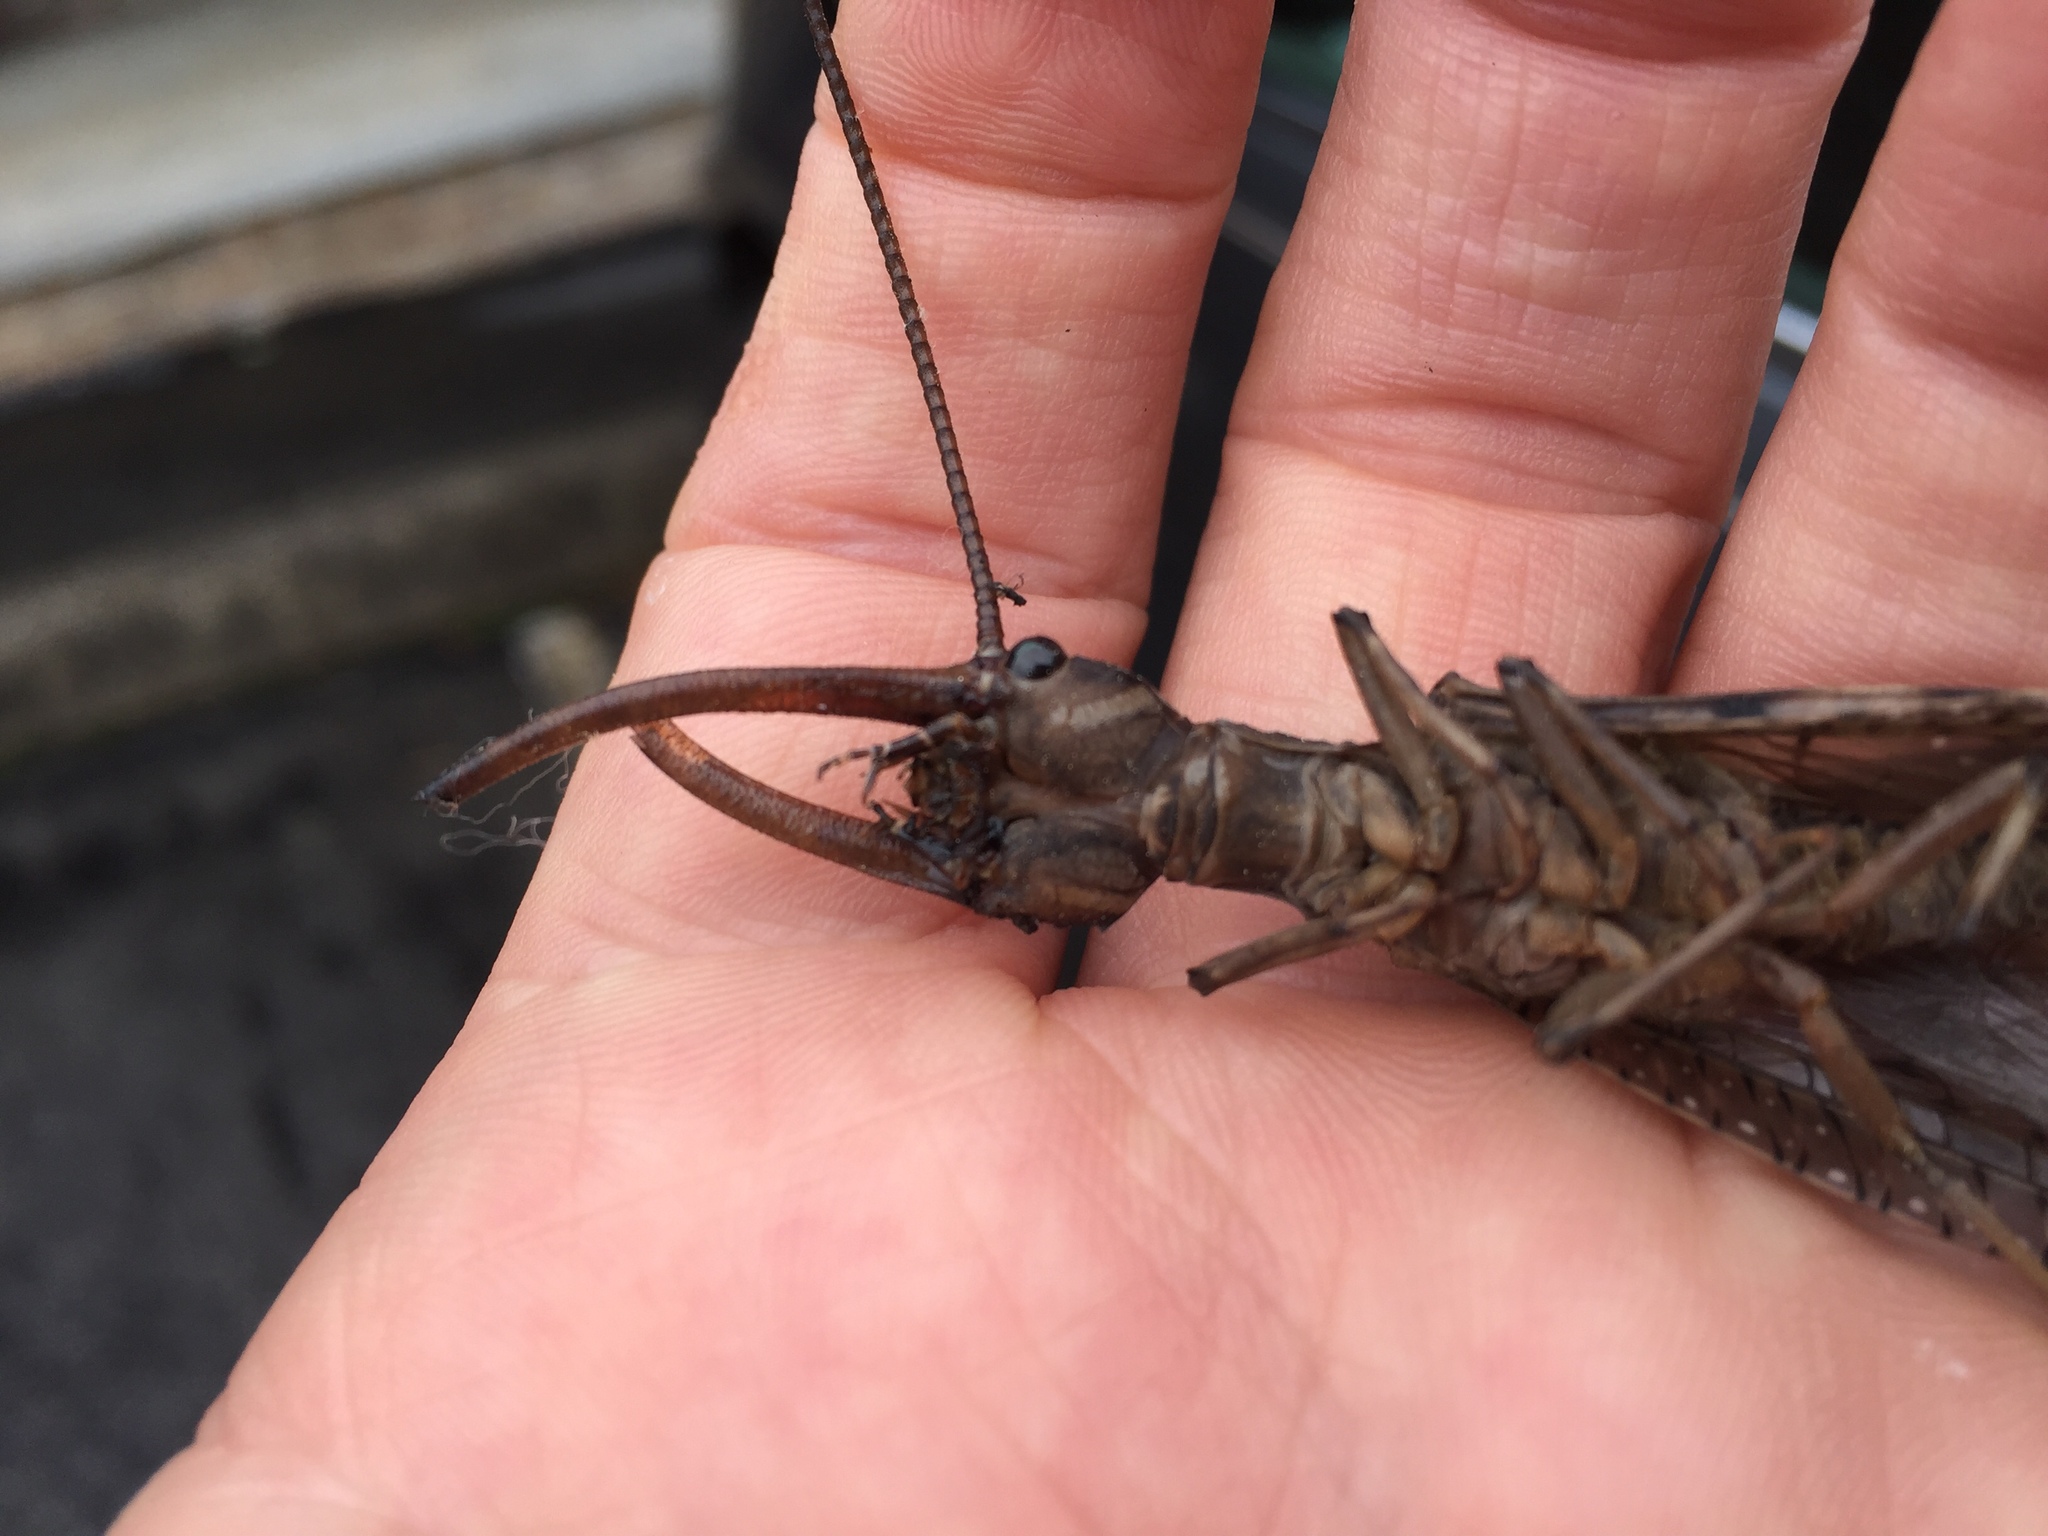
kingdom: Animalia
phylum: Arthropoda
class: Insecta
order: Megaloptera
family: Corydalidae
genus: Corydalus
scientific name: Corydalus cornutus
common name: Dobsonfly
